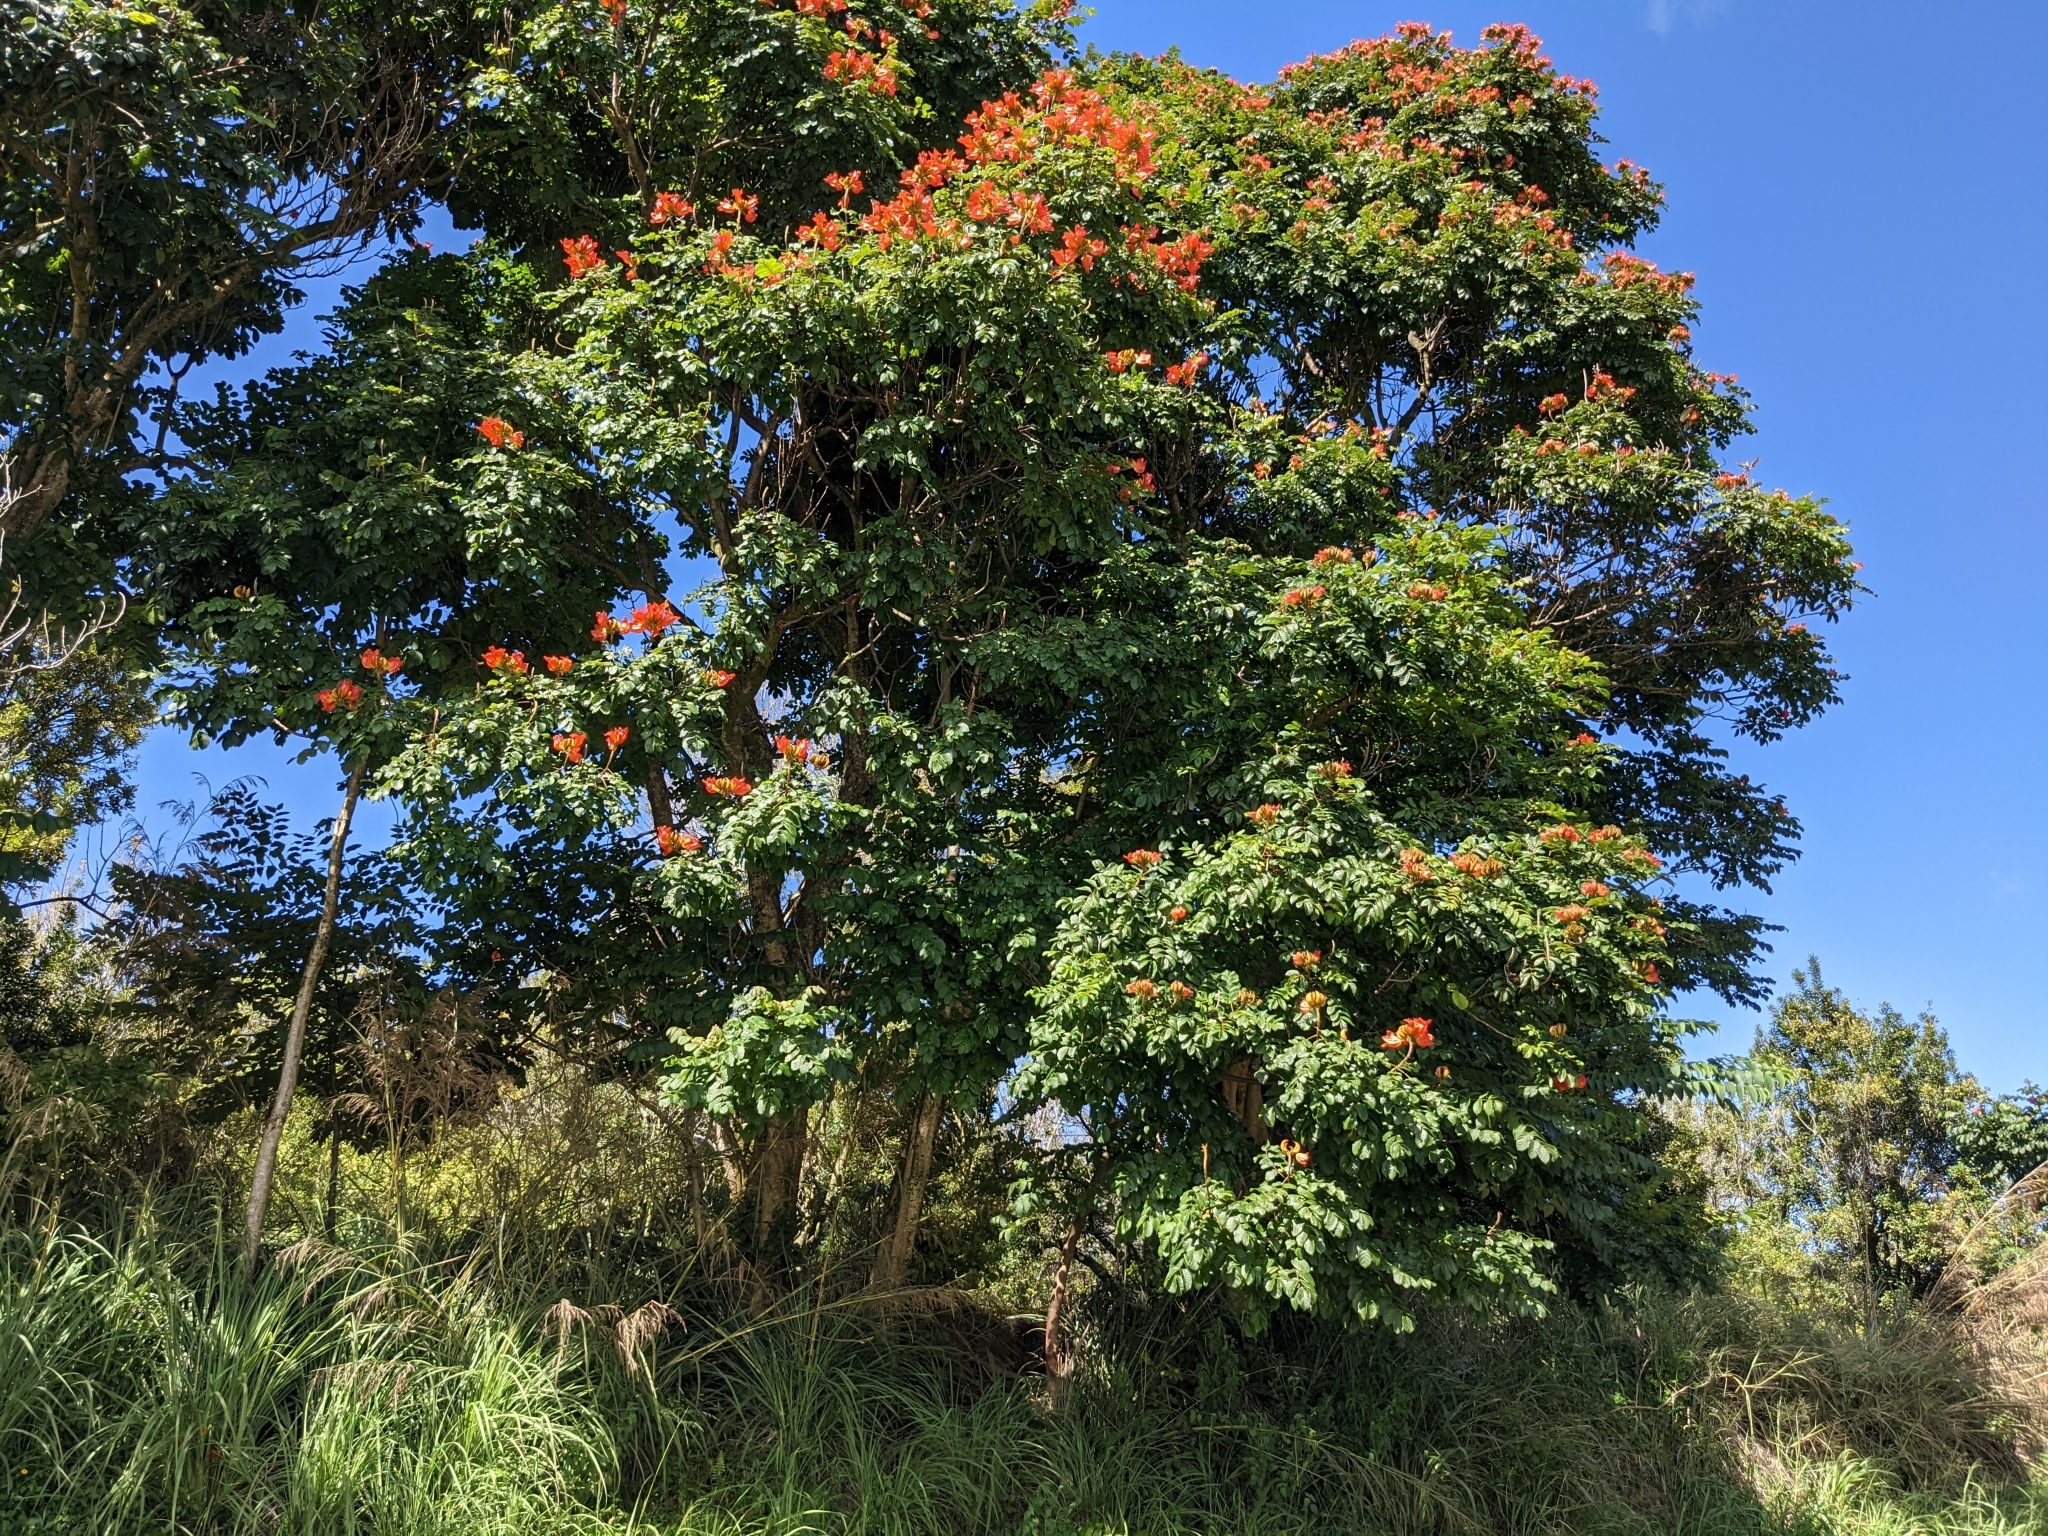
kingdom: Plantae
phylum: Tracheophyta
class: Magnoliopsida
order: Lamiales
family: Bignoniaceae
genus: Spathodea
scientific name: Spathodea campanulata
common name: African tuliptree
